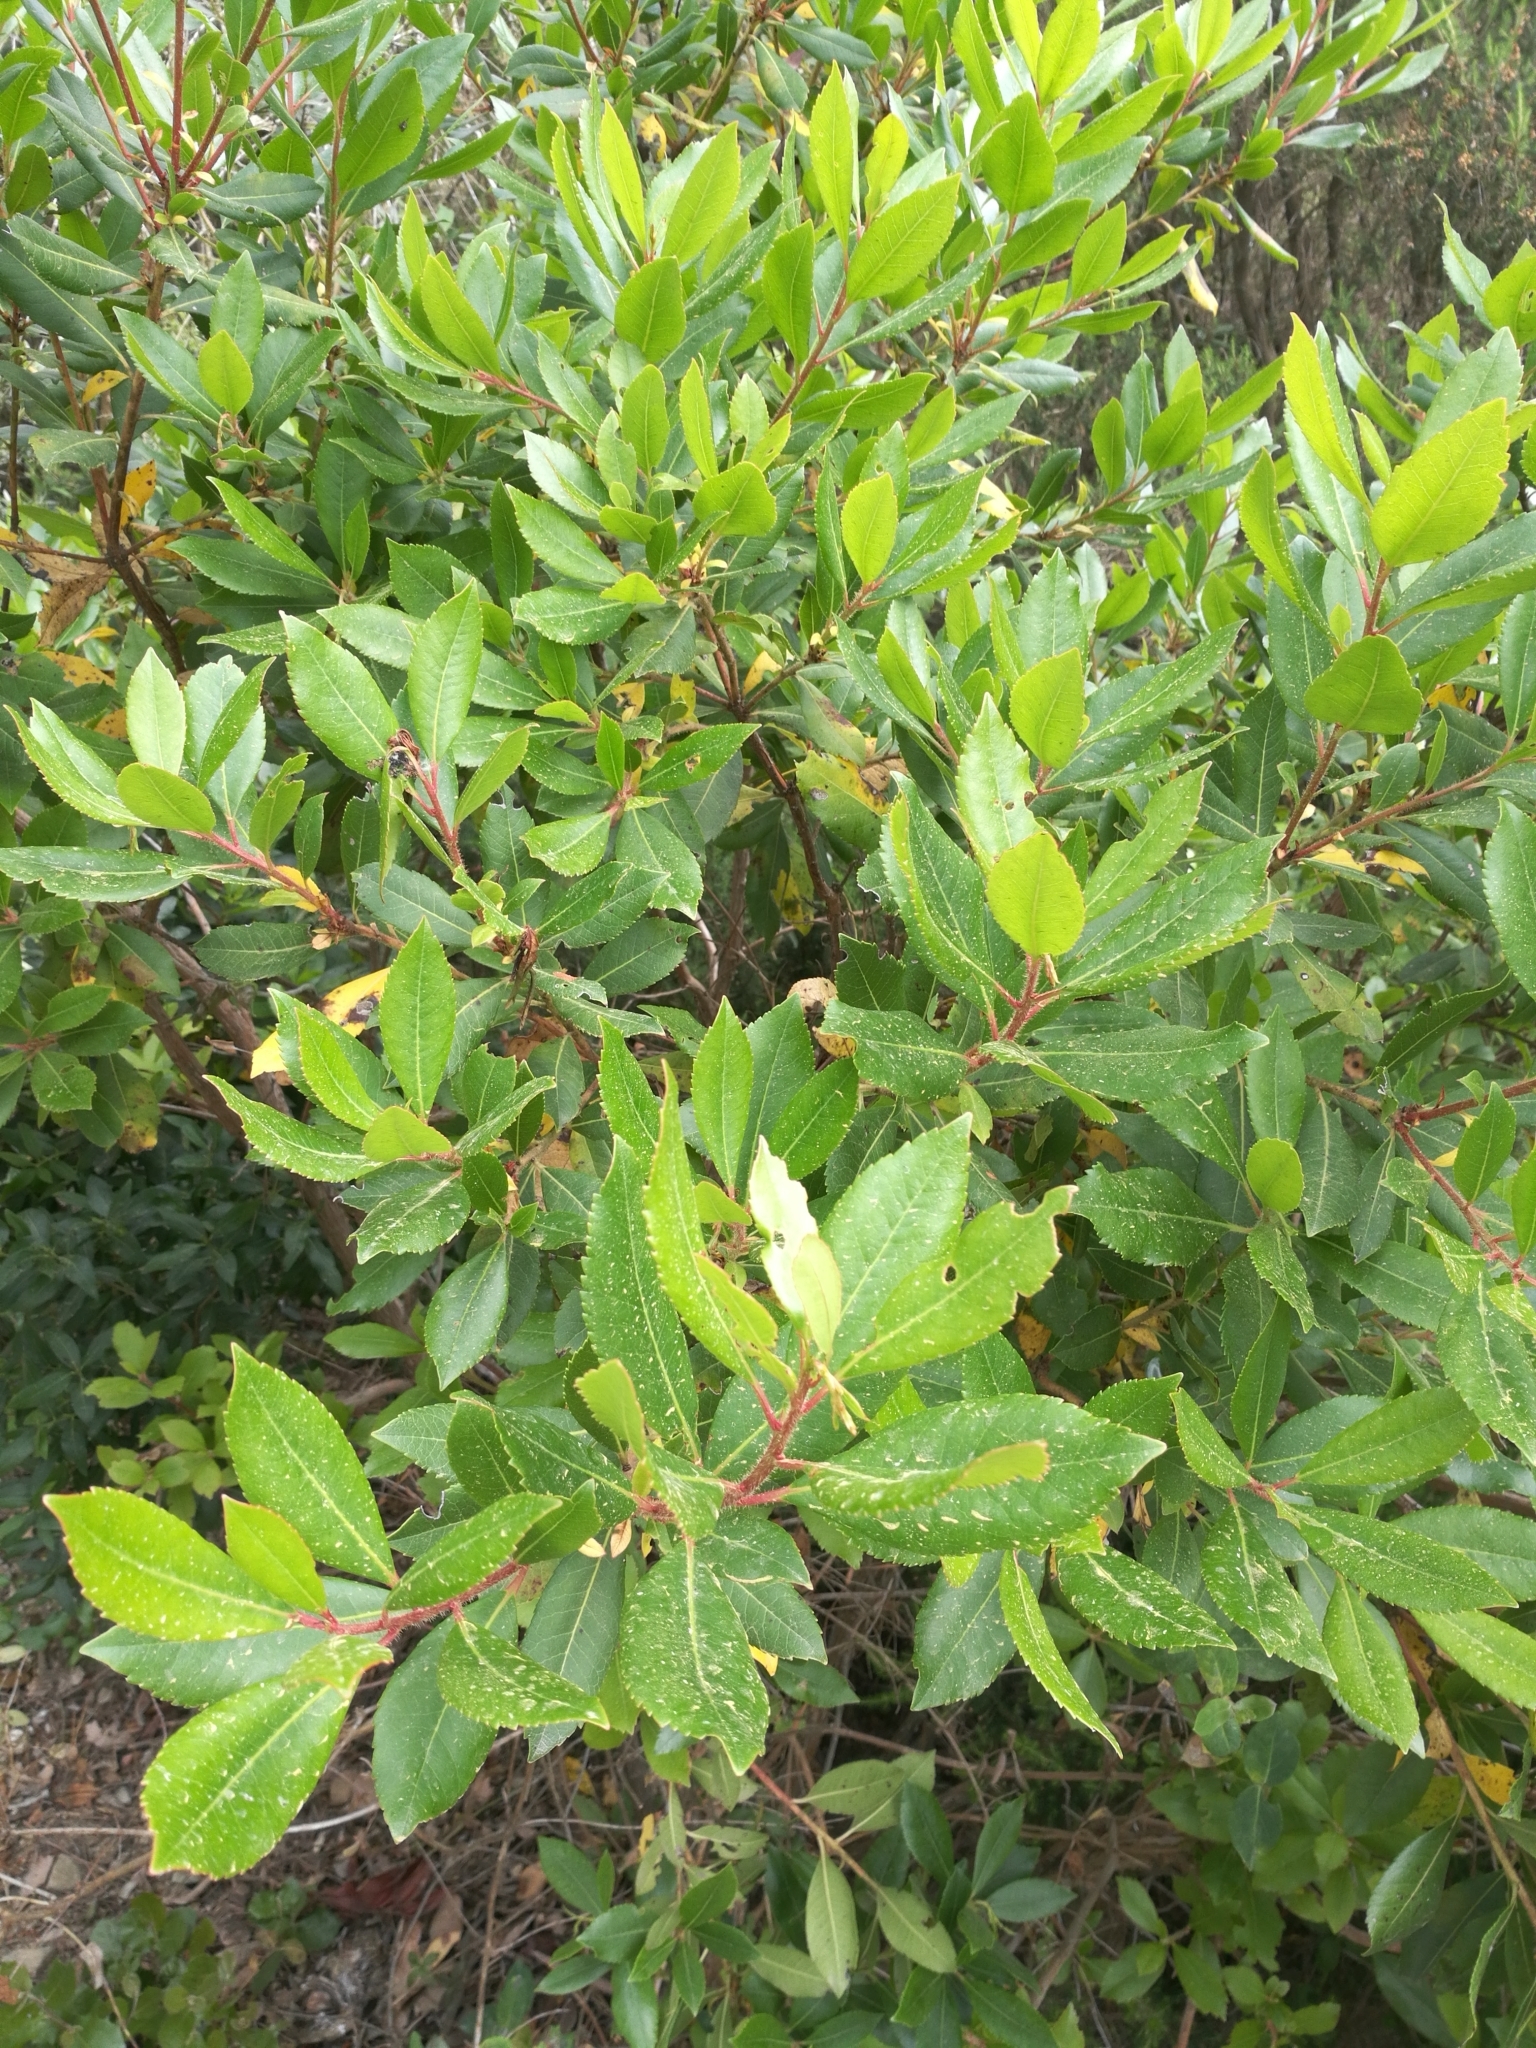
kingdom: Plantae
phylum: Tracheophyta
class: Magnoliopsida
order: Ericales
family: Ericaceae
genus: Arbutus
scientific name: Arbutus unedo
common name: Strawberry-tree
